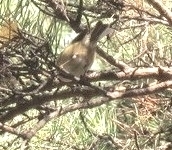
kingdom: Animalia
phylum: Chordata
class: Aves
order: Passeriformes
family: Regulidae
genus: Regulus
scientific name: Regulus regulus
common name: Goldcrest
